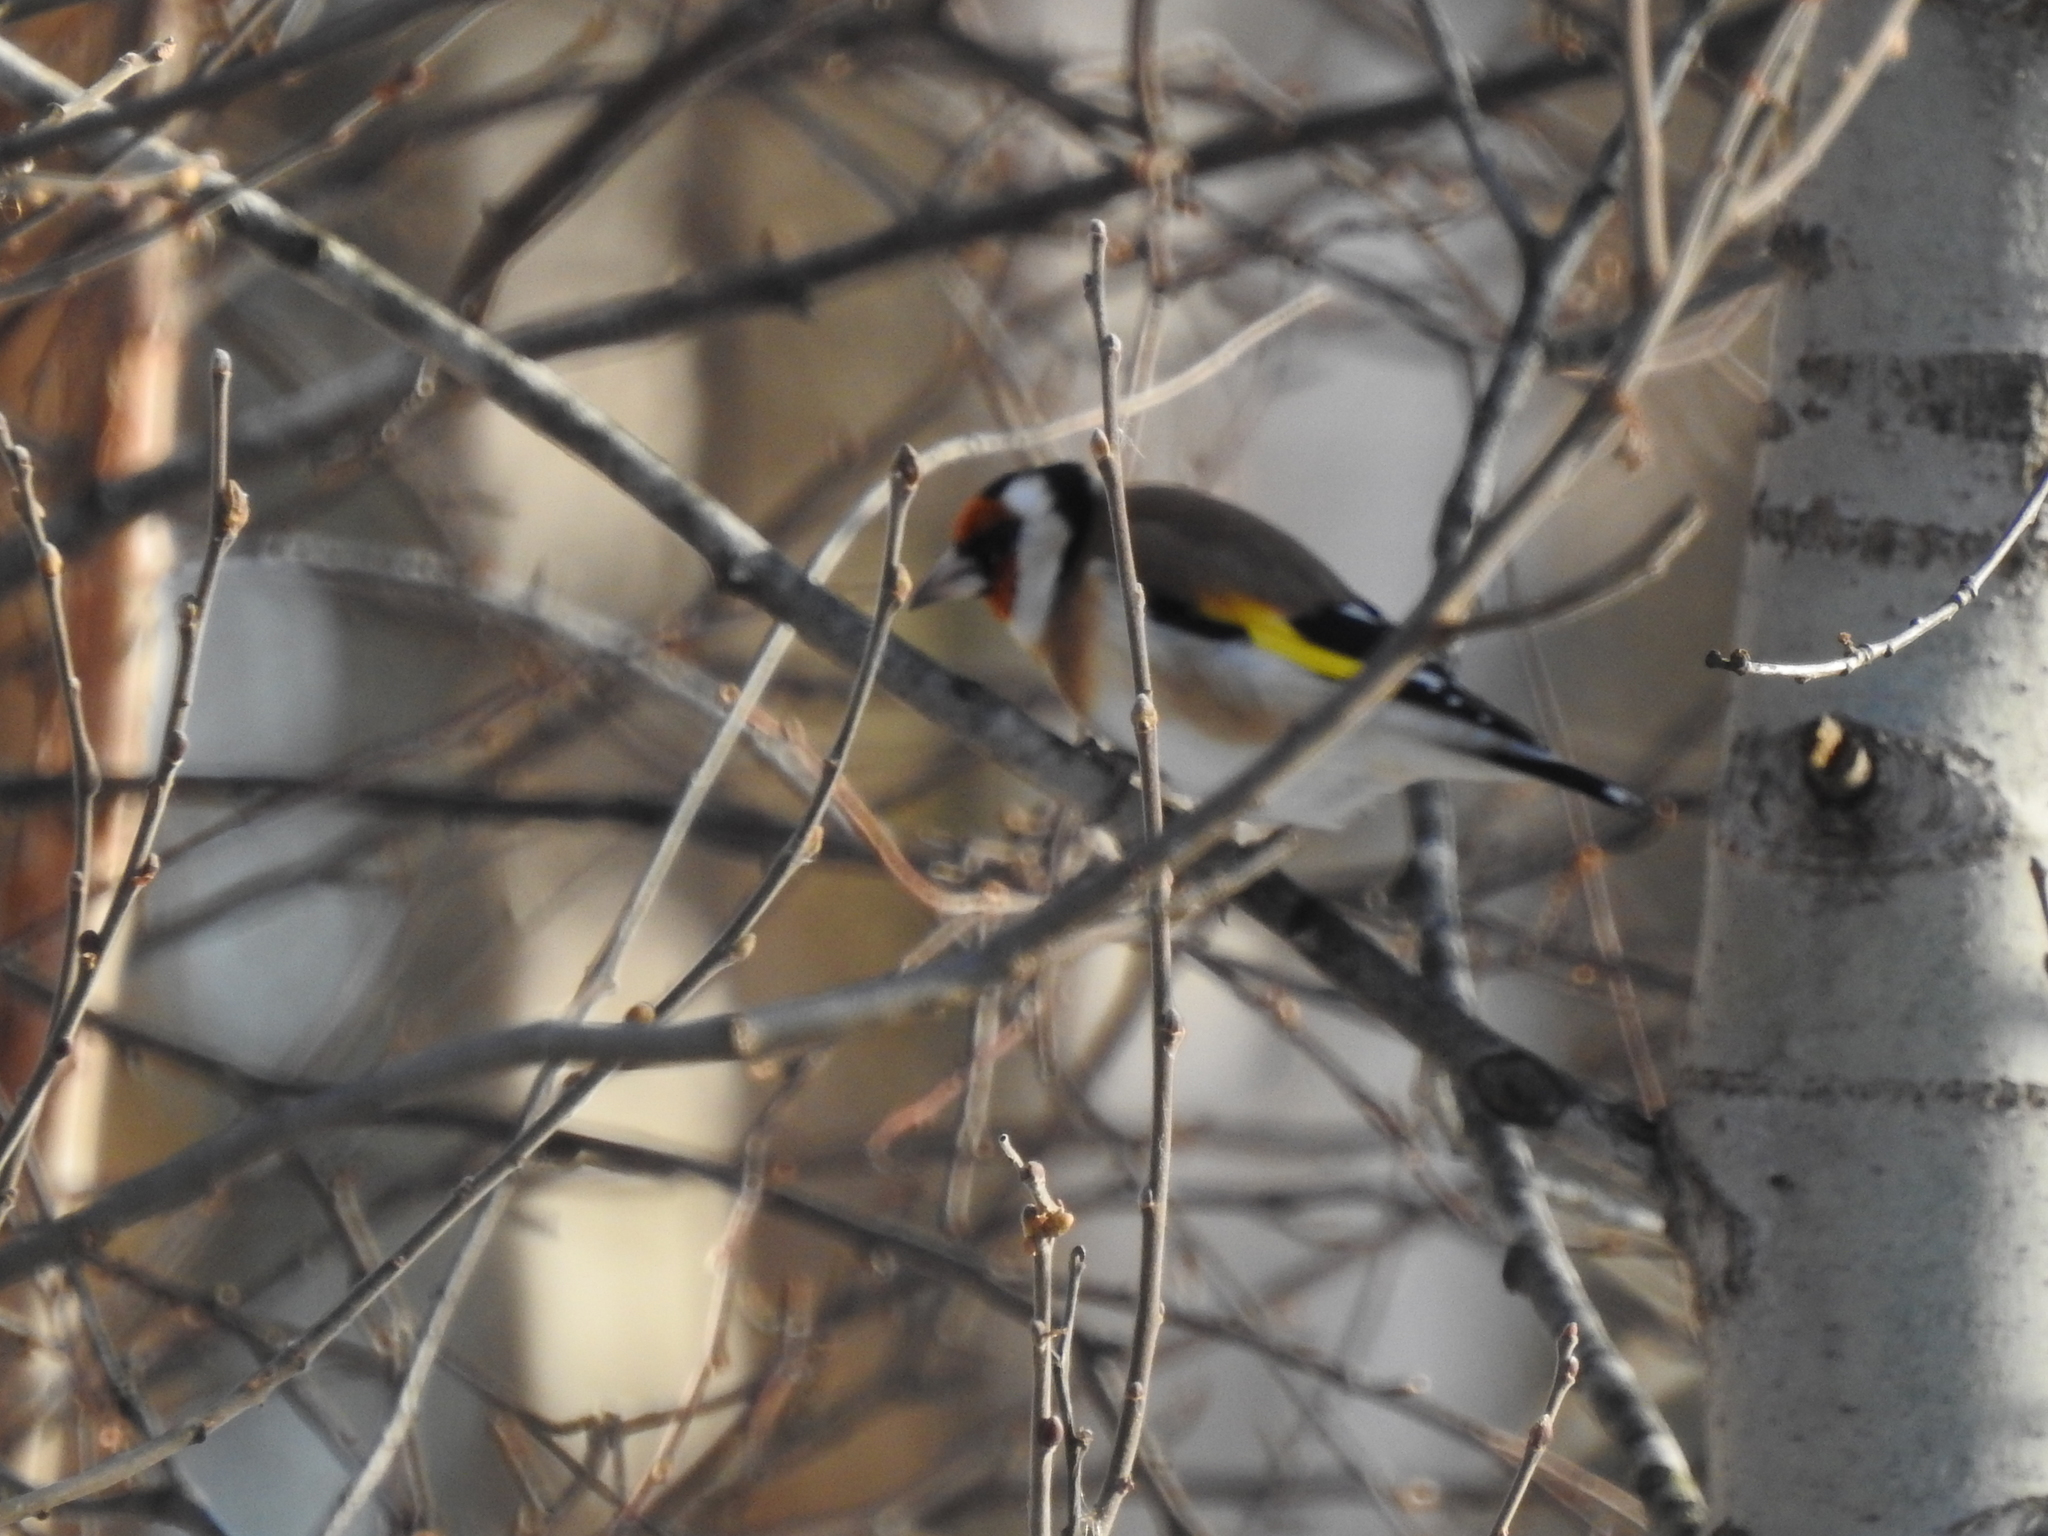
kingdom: Animalia
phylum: Chordata
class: Aves
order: Passeriformes
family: Fringillidae
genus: Carduelis
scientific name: Carduelis carduelis
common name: European goldfinch
